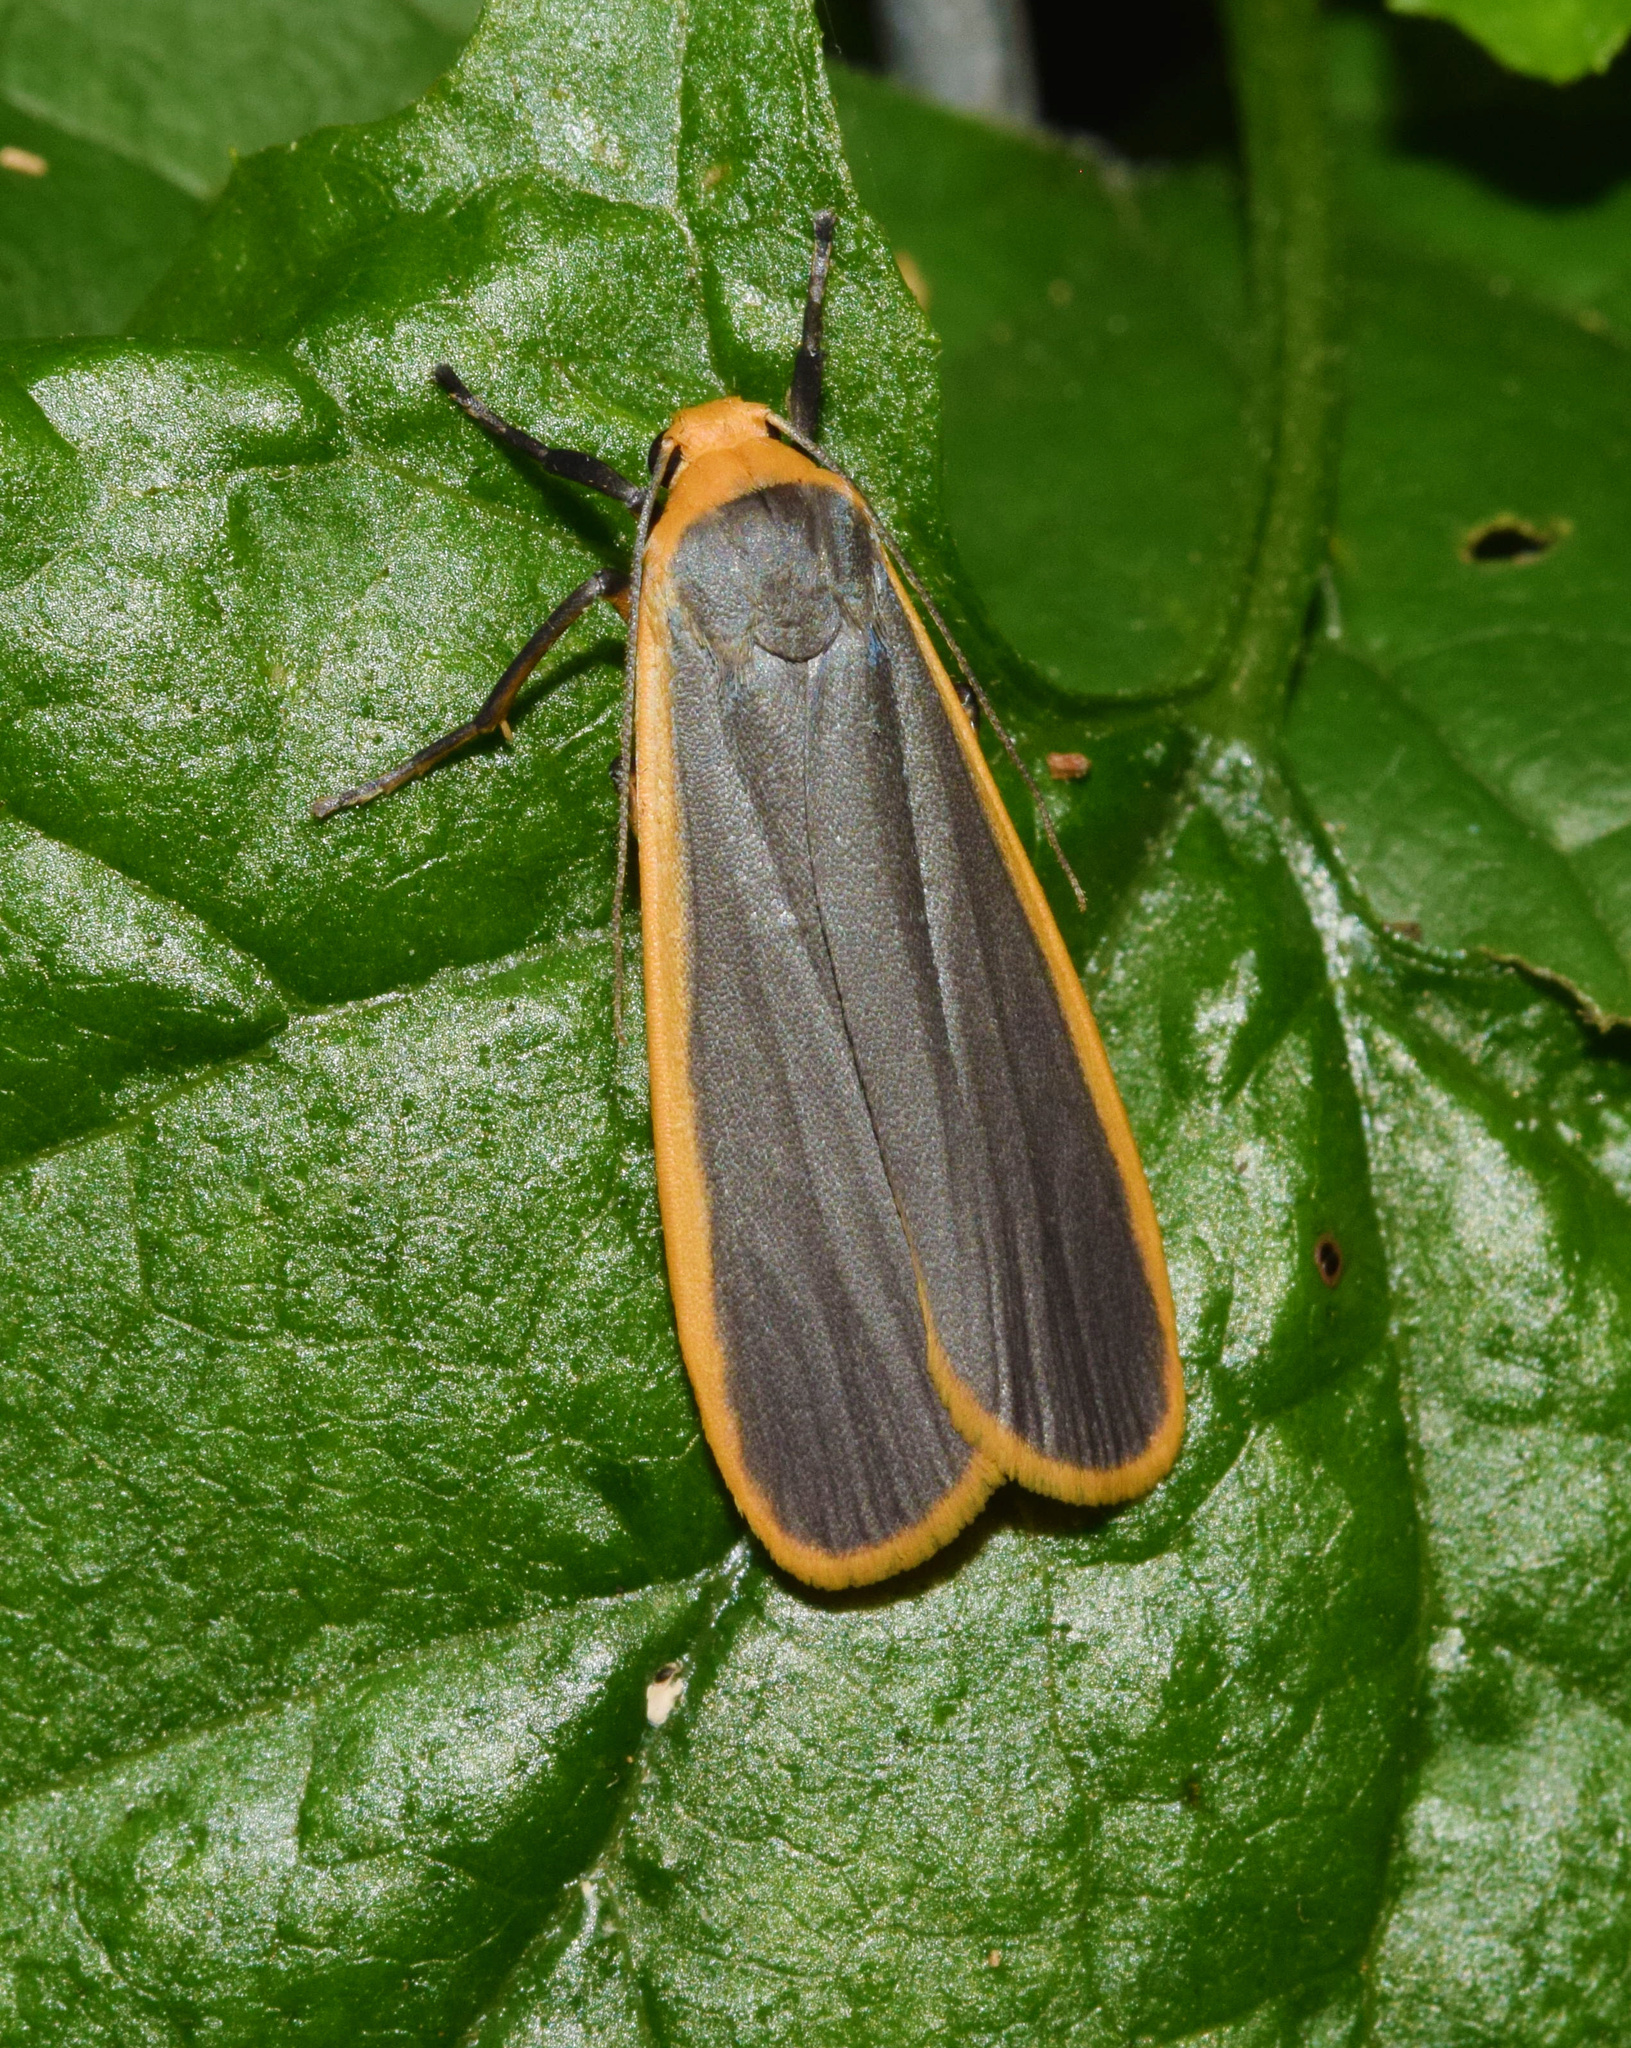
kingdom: Animalia
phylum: Arthropoda
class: Insecta
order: Lepidoptera
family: Erebidae
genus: Brunia
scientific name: Brunia vicaria
